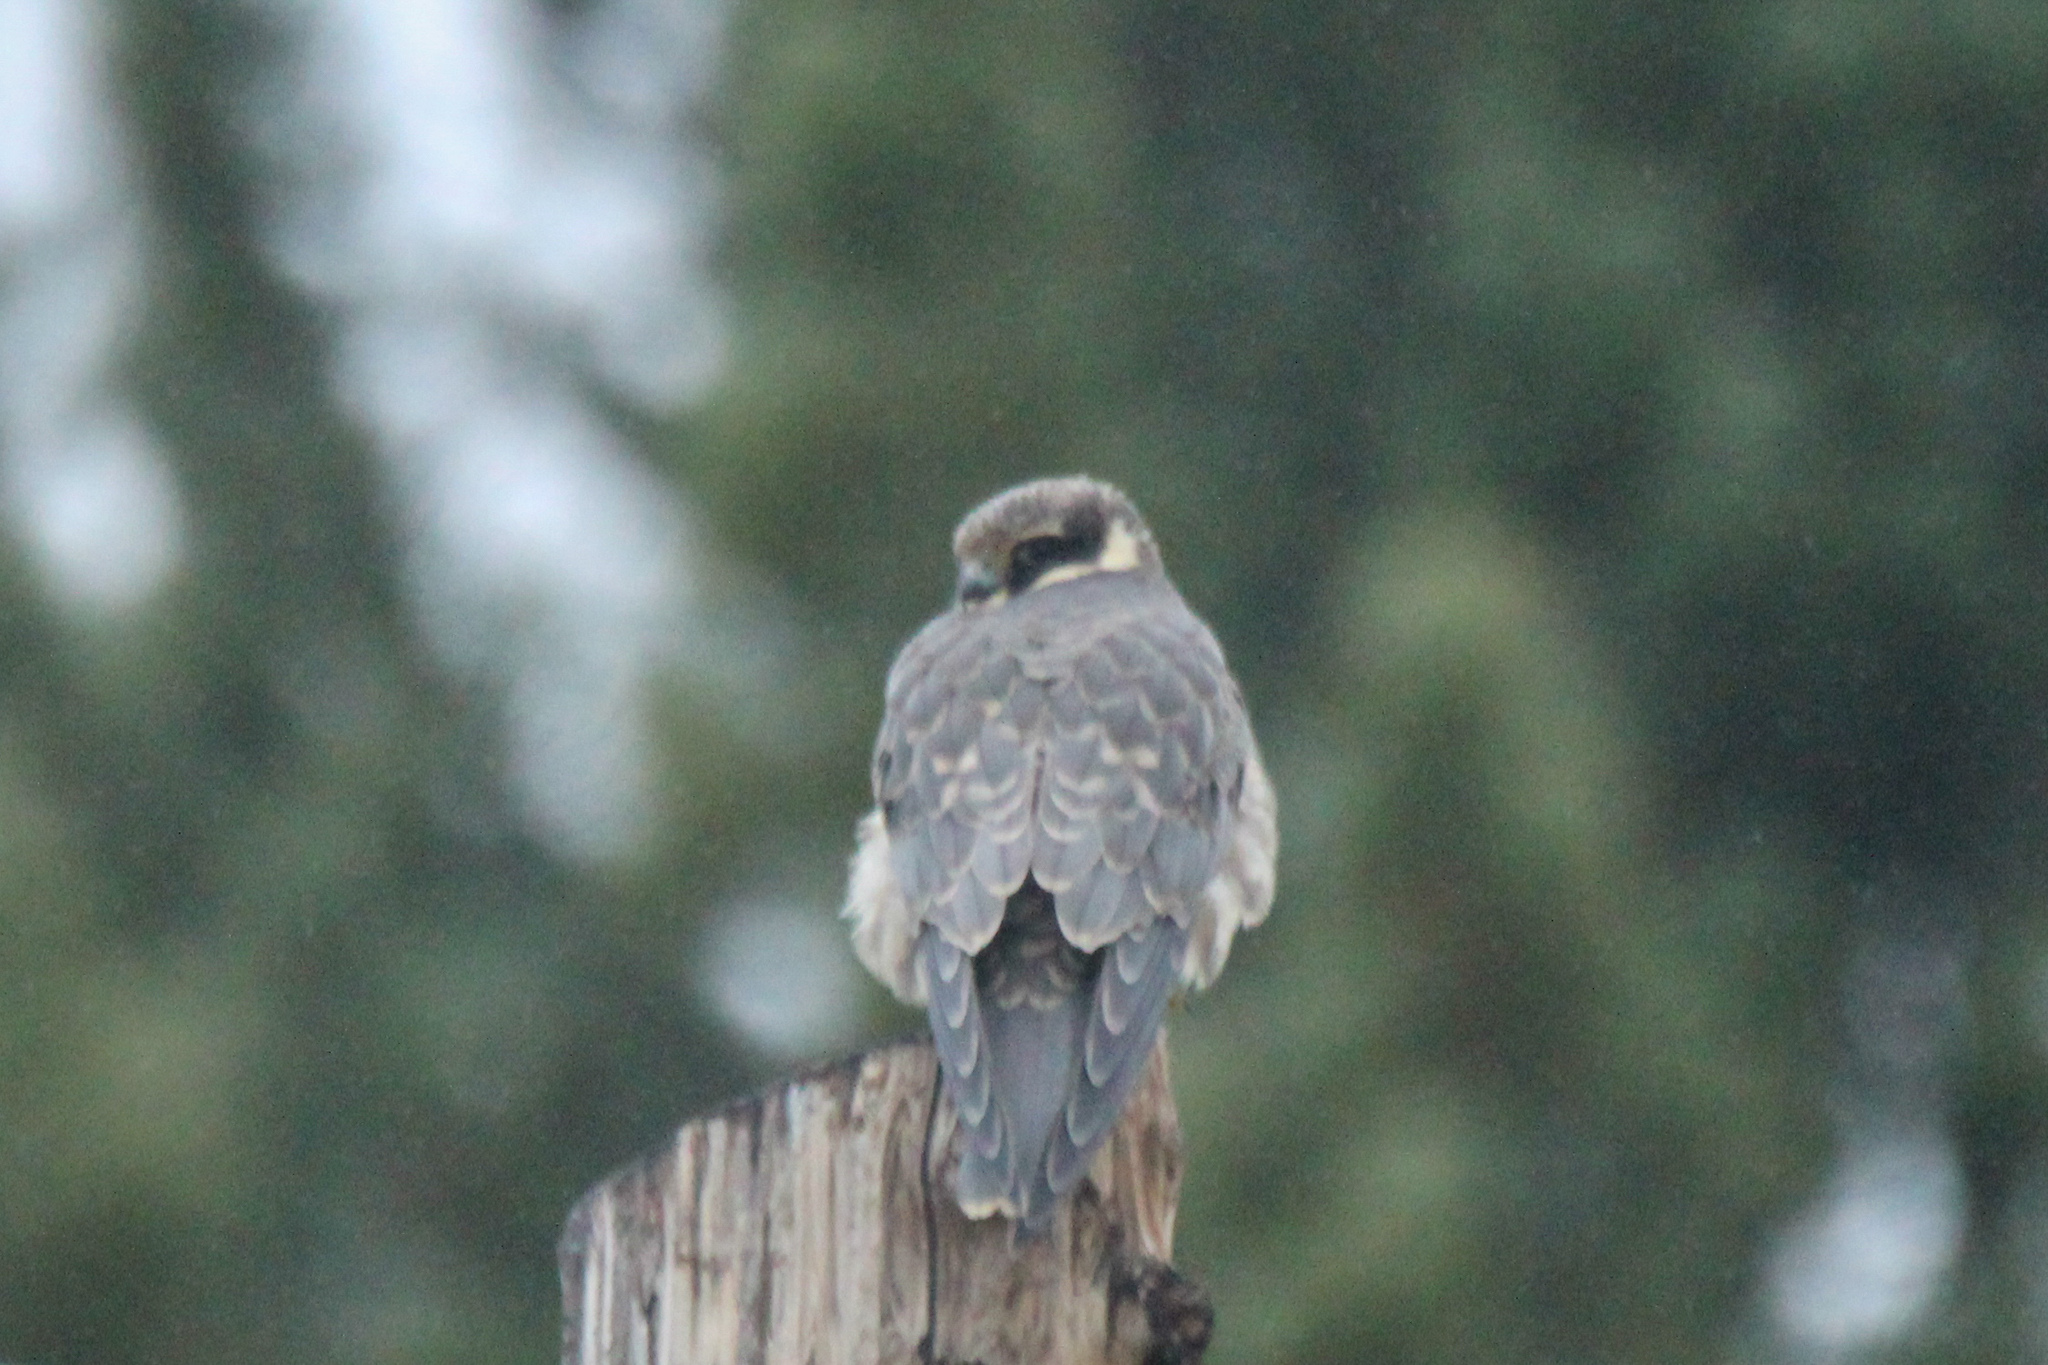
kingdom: Animalia
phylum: Chordata
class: Aves
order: Falconiformes
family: Falconidae
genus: Falco
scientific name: Falco subbuteo
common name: Eurasian hobby
